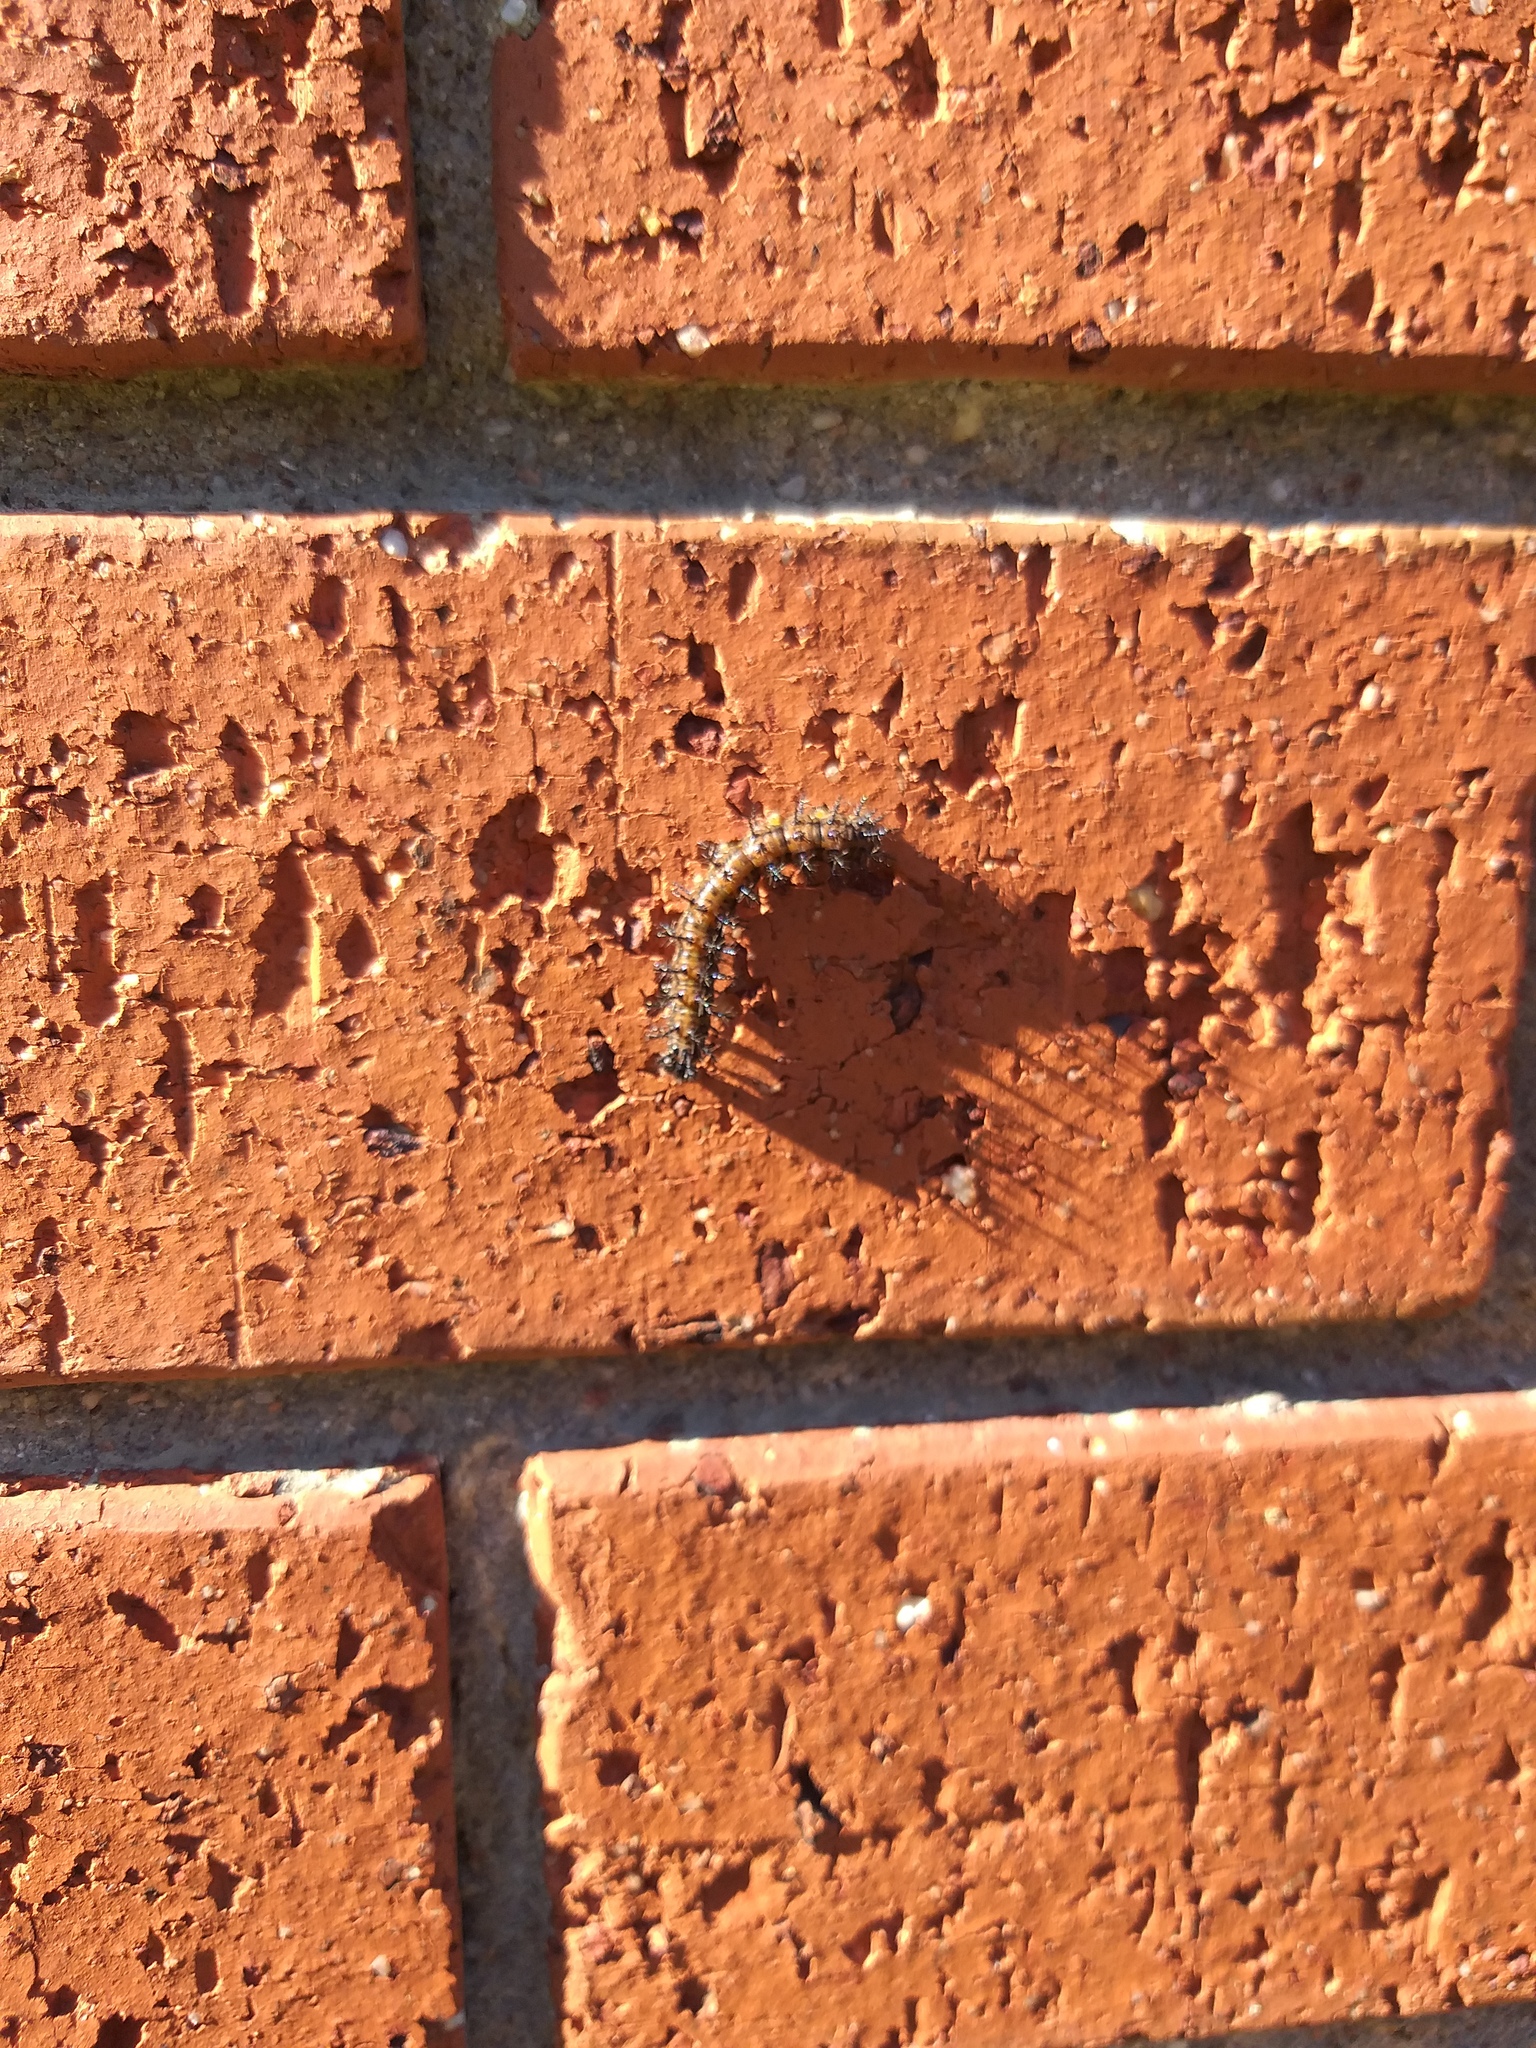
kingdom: Animalia
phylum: Arthropoda
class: Insecta
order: Lepidoptera
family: Nymphalidae
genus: Acraea
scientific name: Acraea horta
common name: Garden acraea
